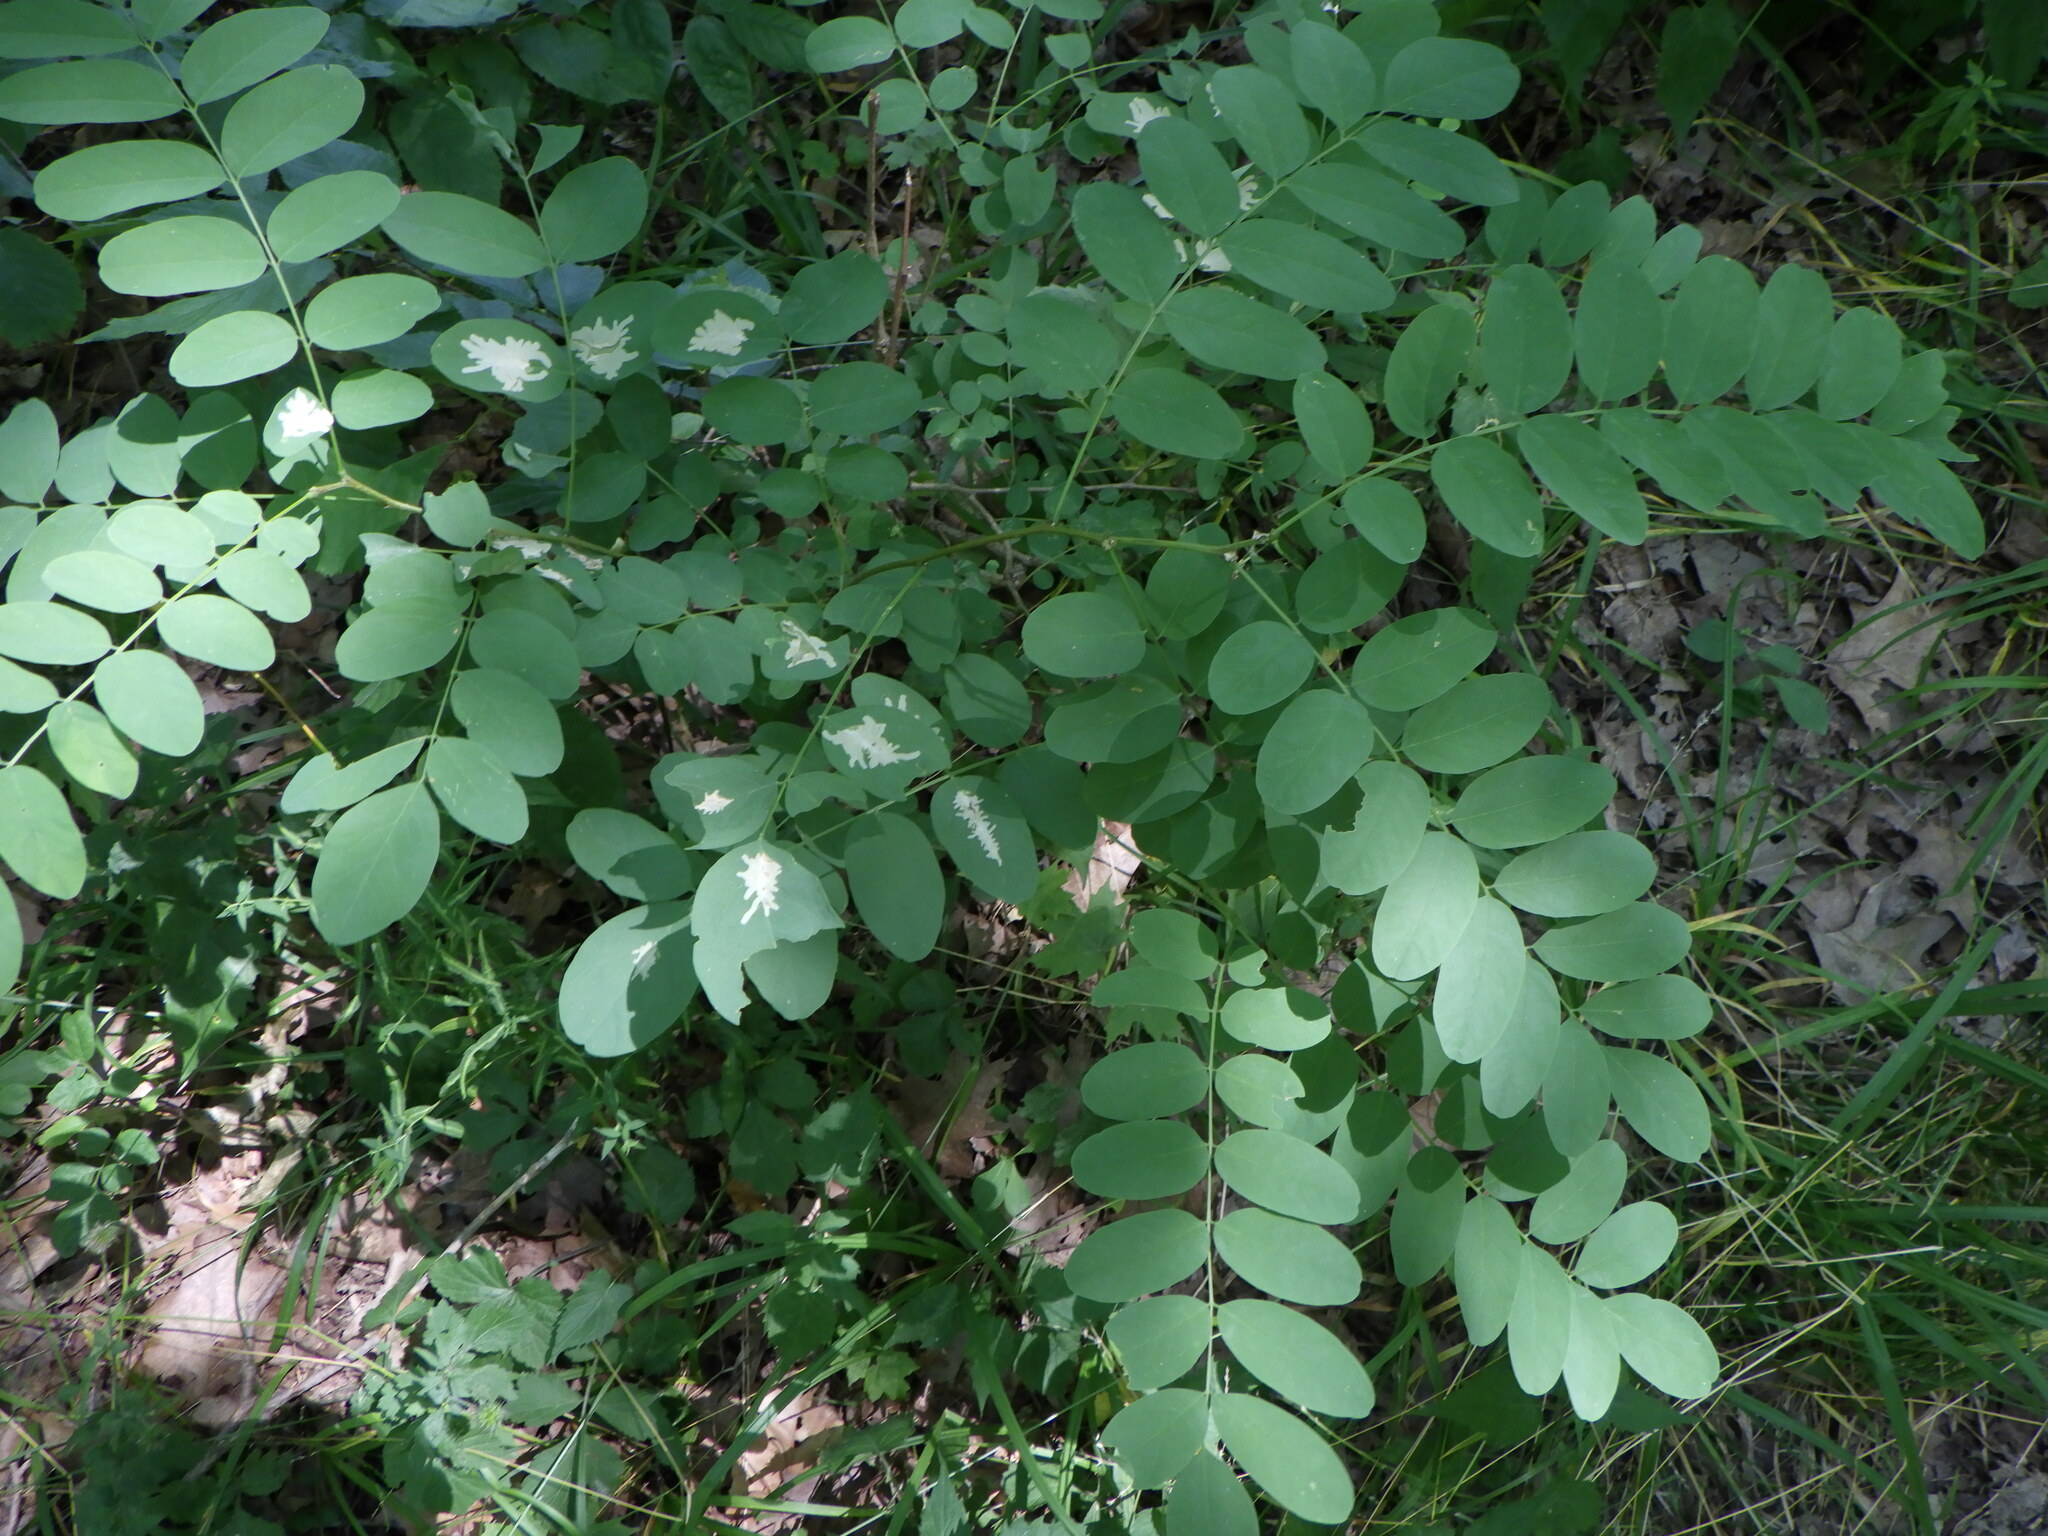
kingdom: Plantae
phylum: Tracheophyta
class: Magnoliopsida
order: Fabales
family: Fabaceae
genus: Robinia
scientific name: Robinia pseudoacacia
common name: Black locust
